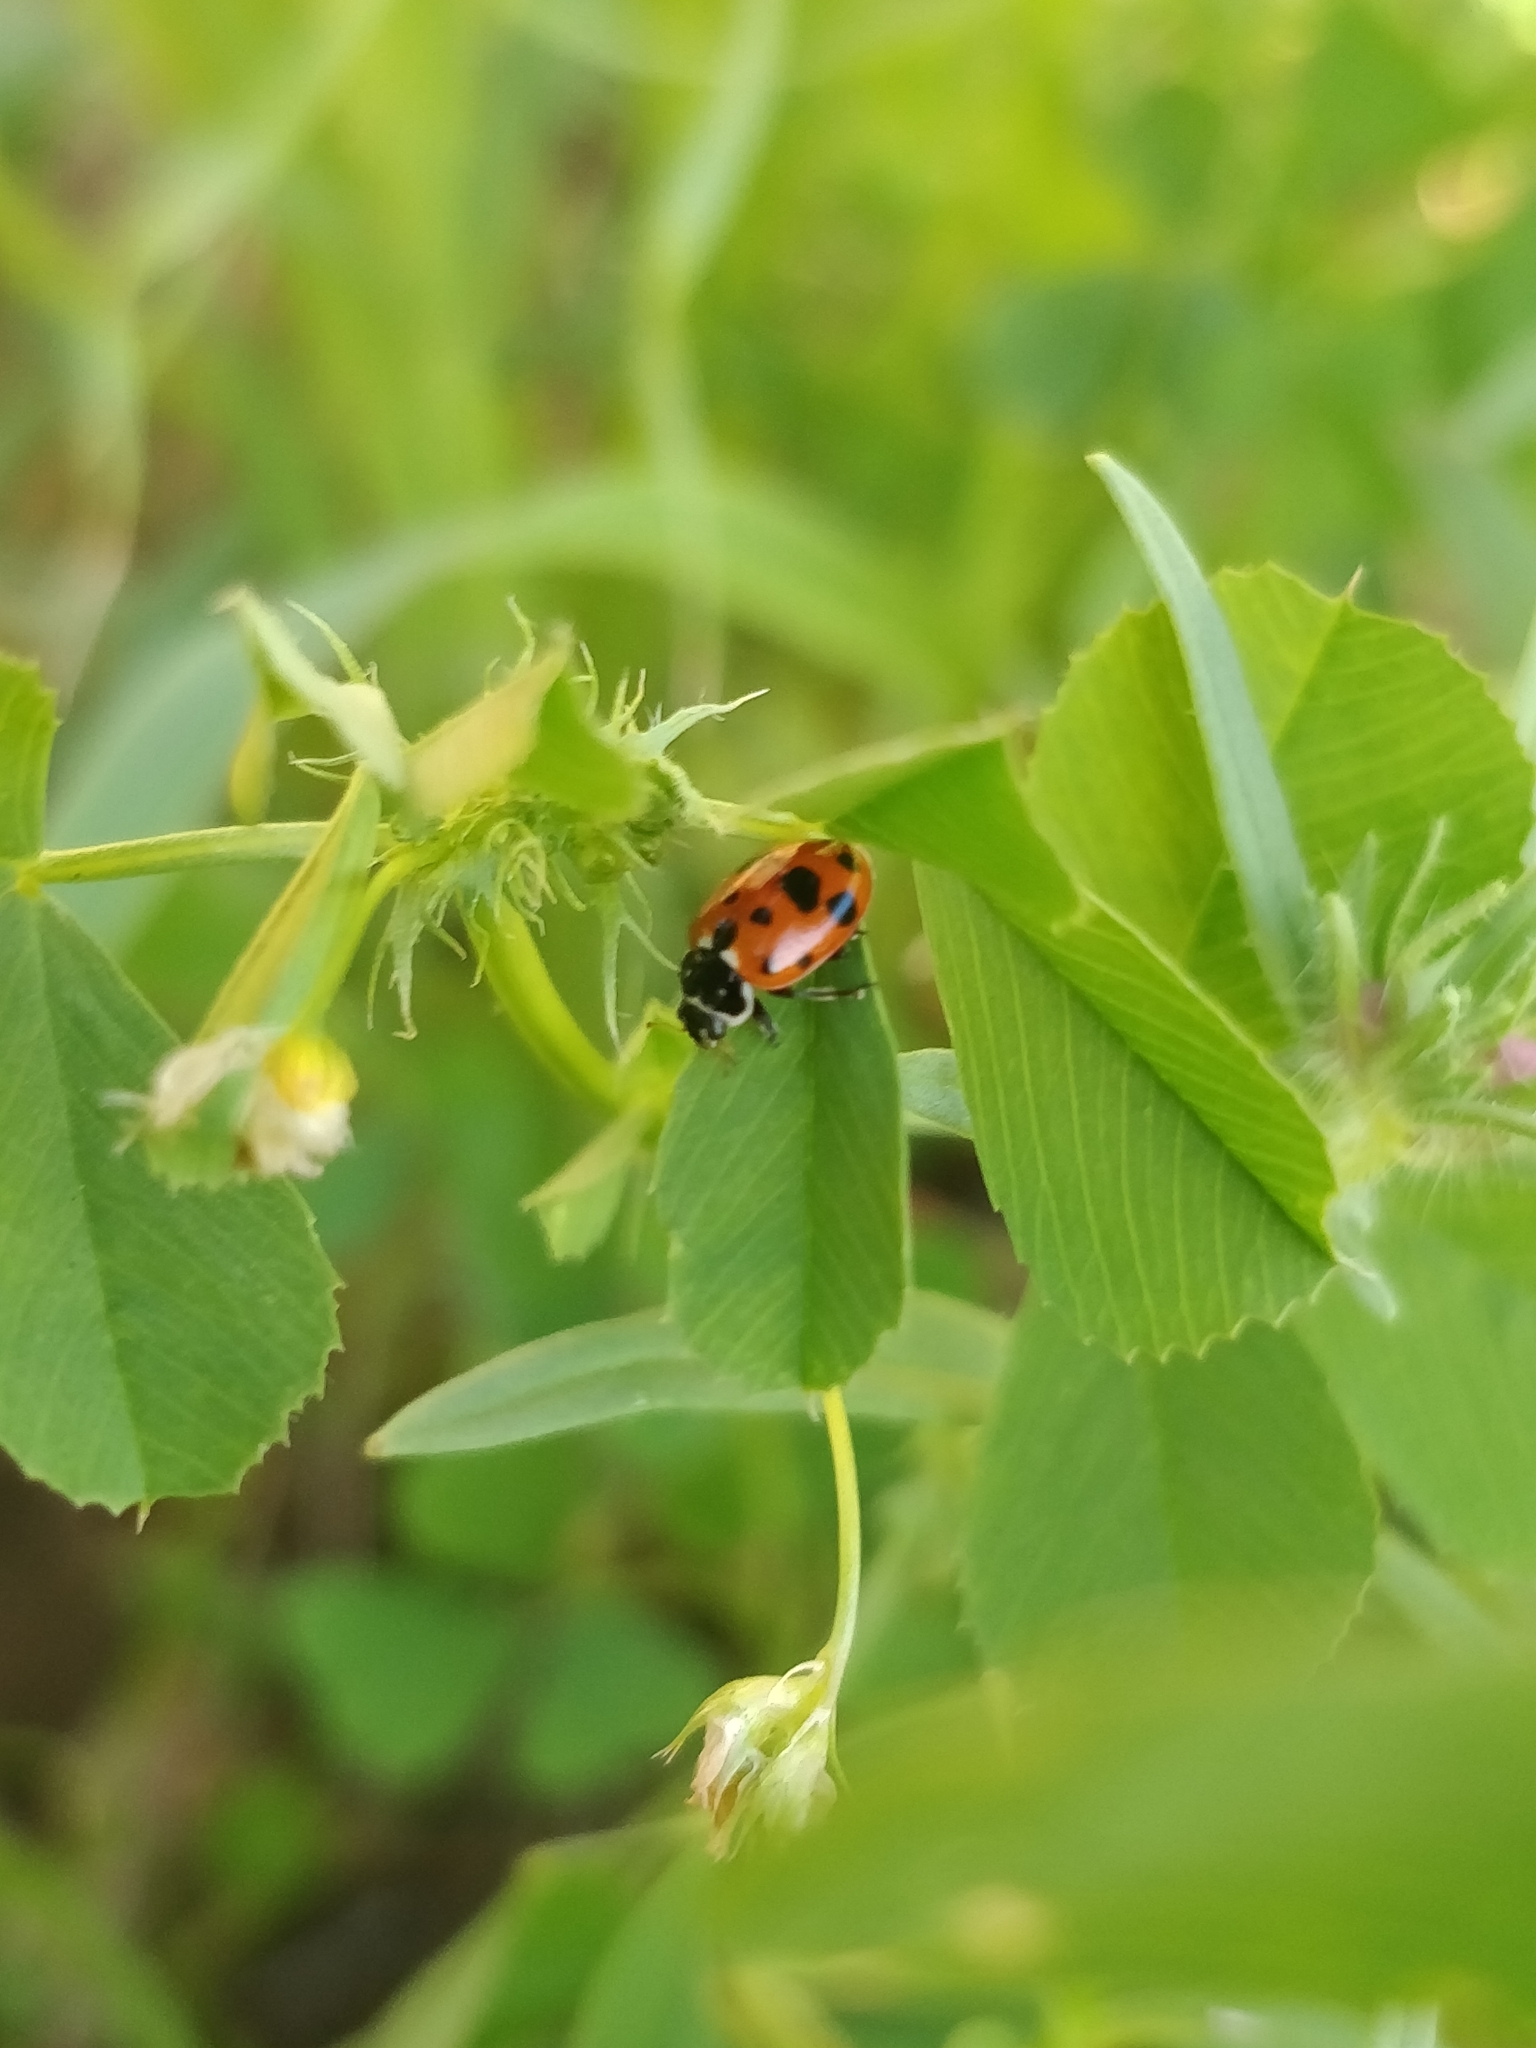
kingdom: Animalia
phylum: Arthropoda
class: Insecta
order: Coleoptera
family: Coccinellidae
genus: Hippodamia
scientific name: Hippodamia variegata
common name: Ladybird beetle
